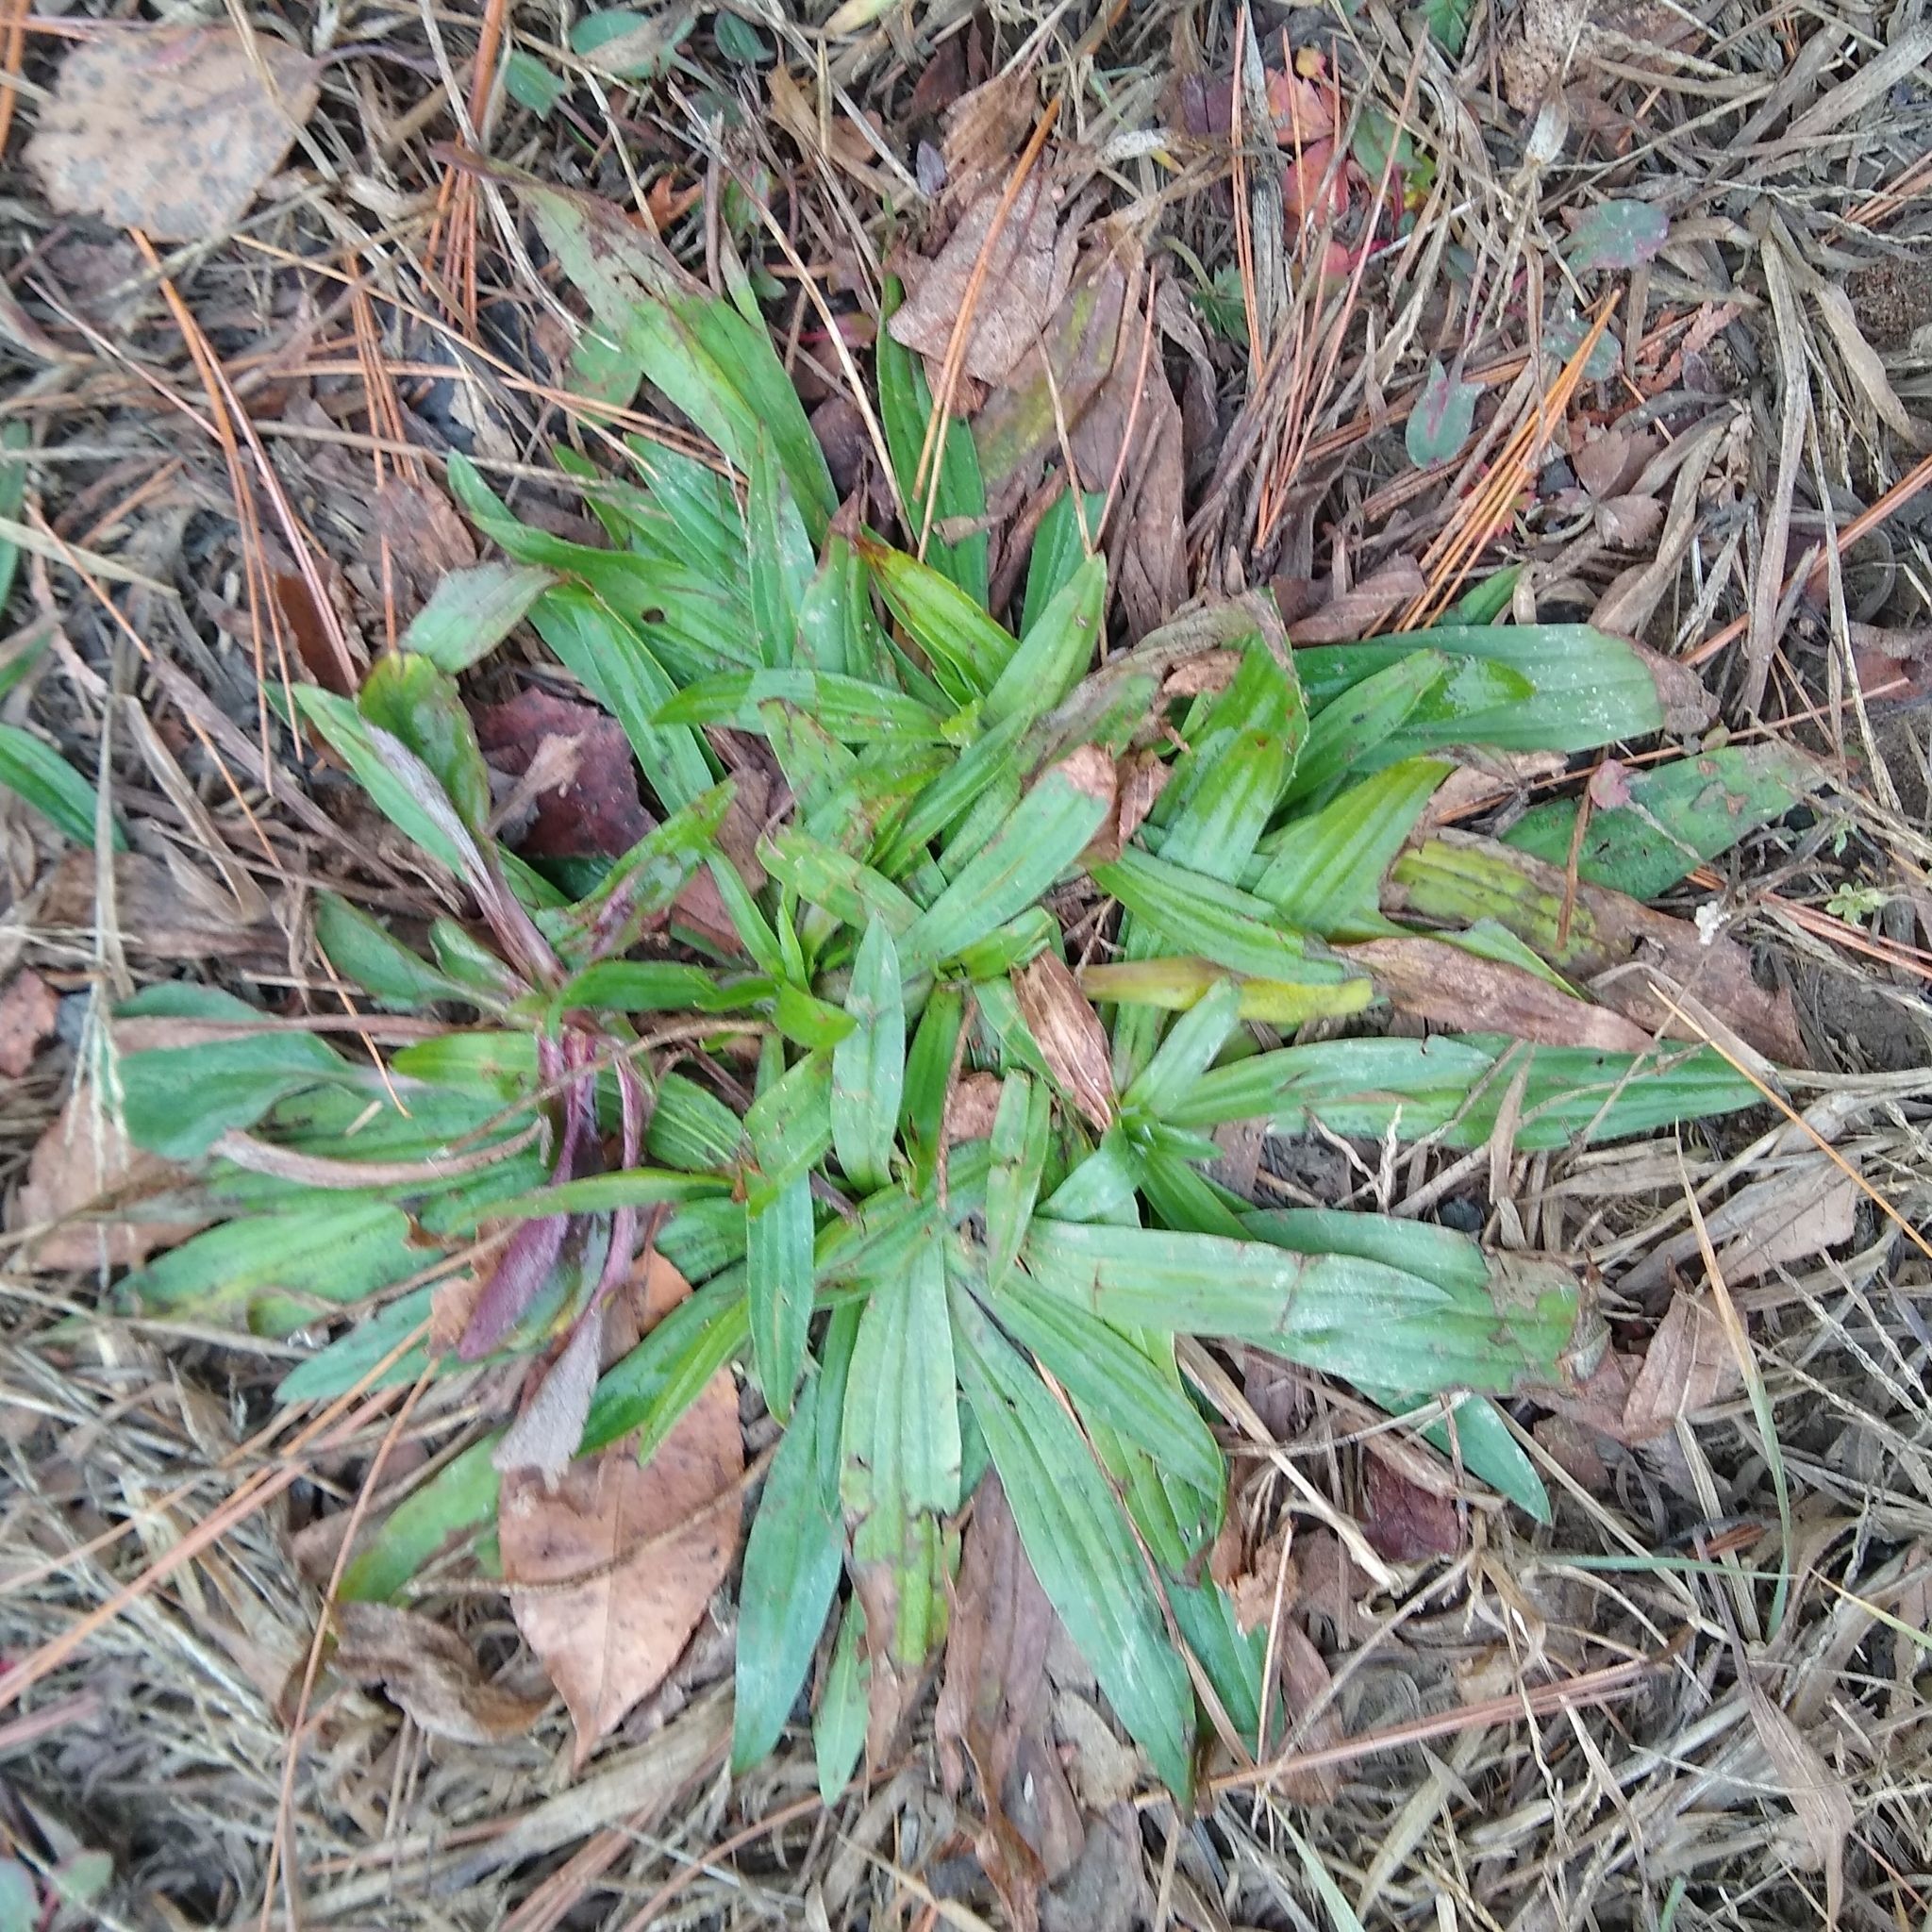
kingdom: Plantae
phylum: Tracheophyta
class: Magnoliopsida
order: Lamiales
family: Plantaginaceae
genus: Plantago
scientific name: Plantago lanceolata
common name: Ribwort plantain
